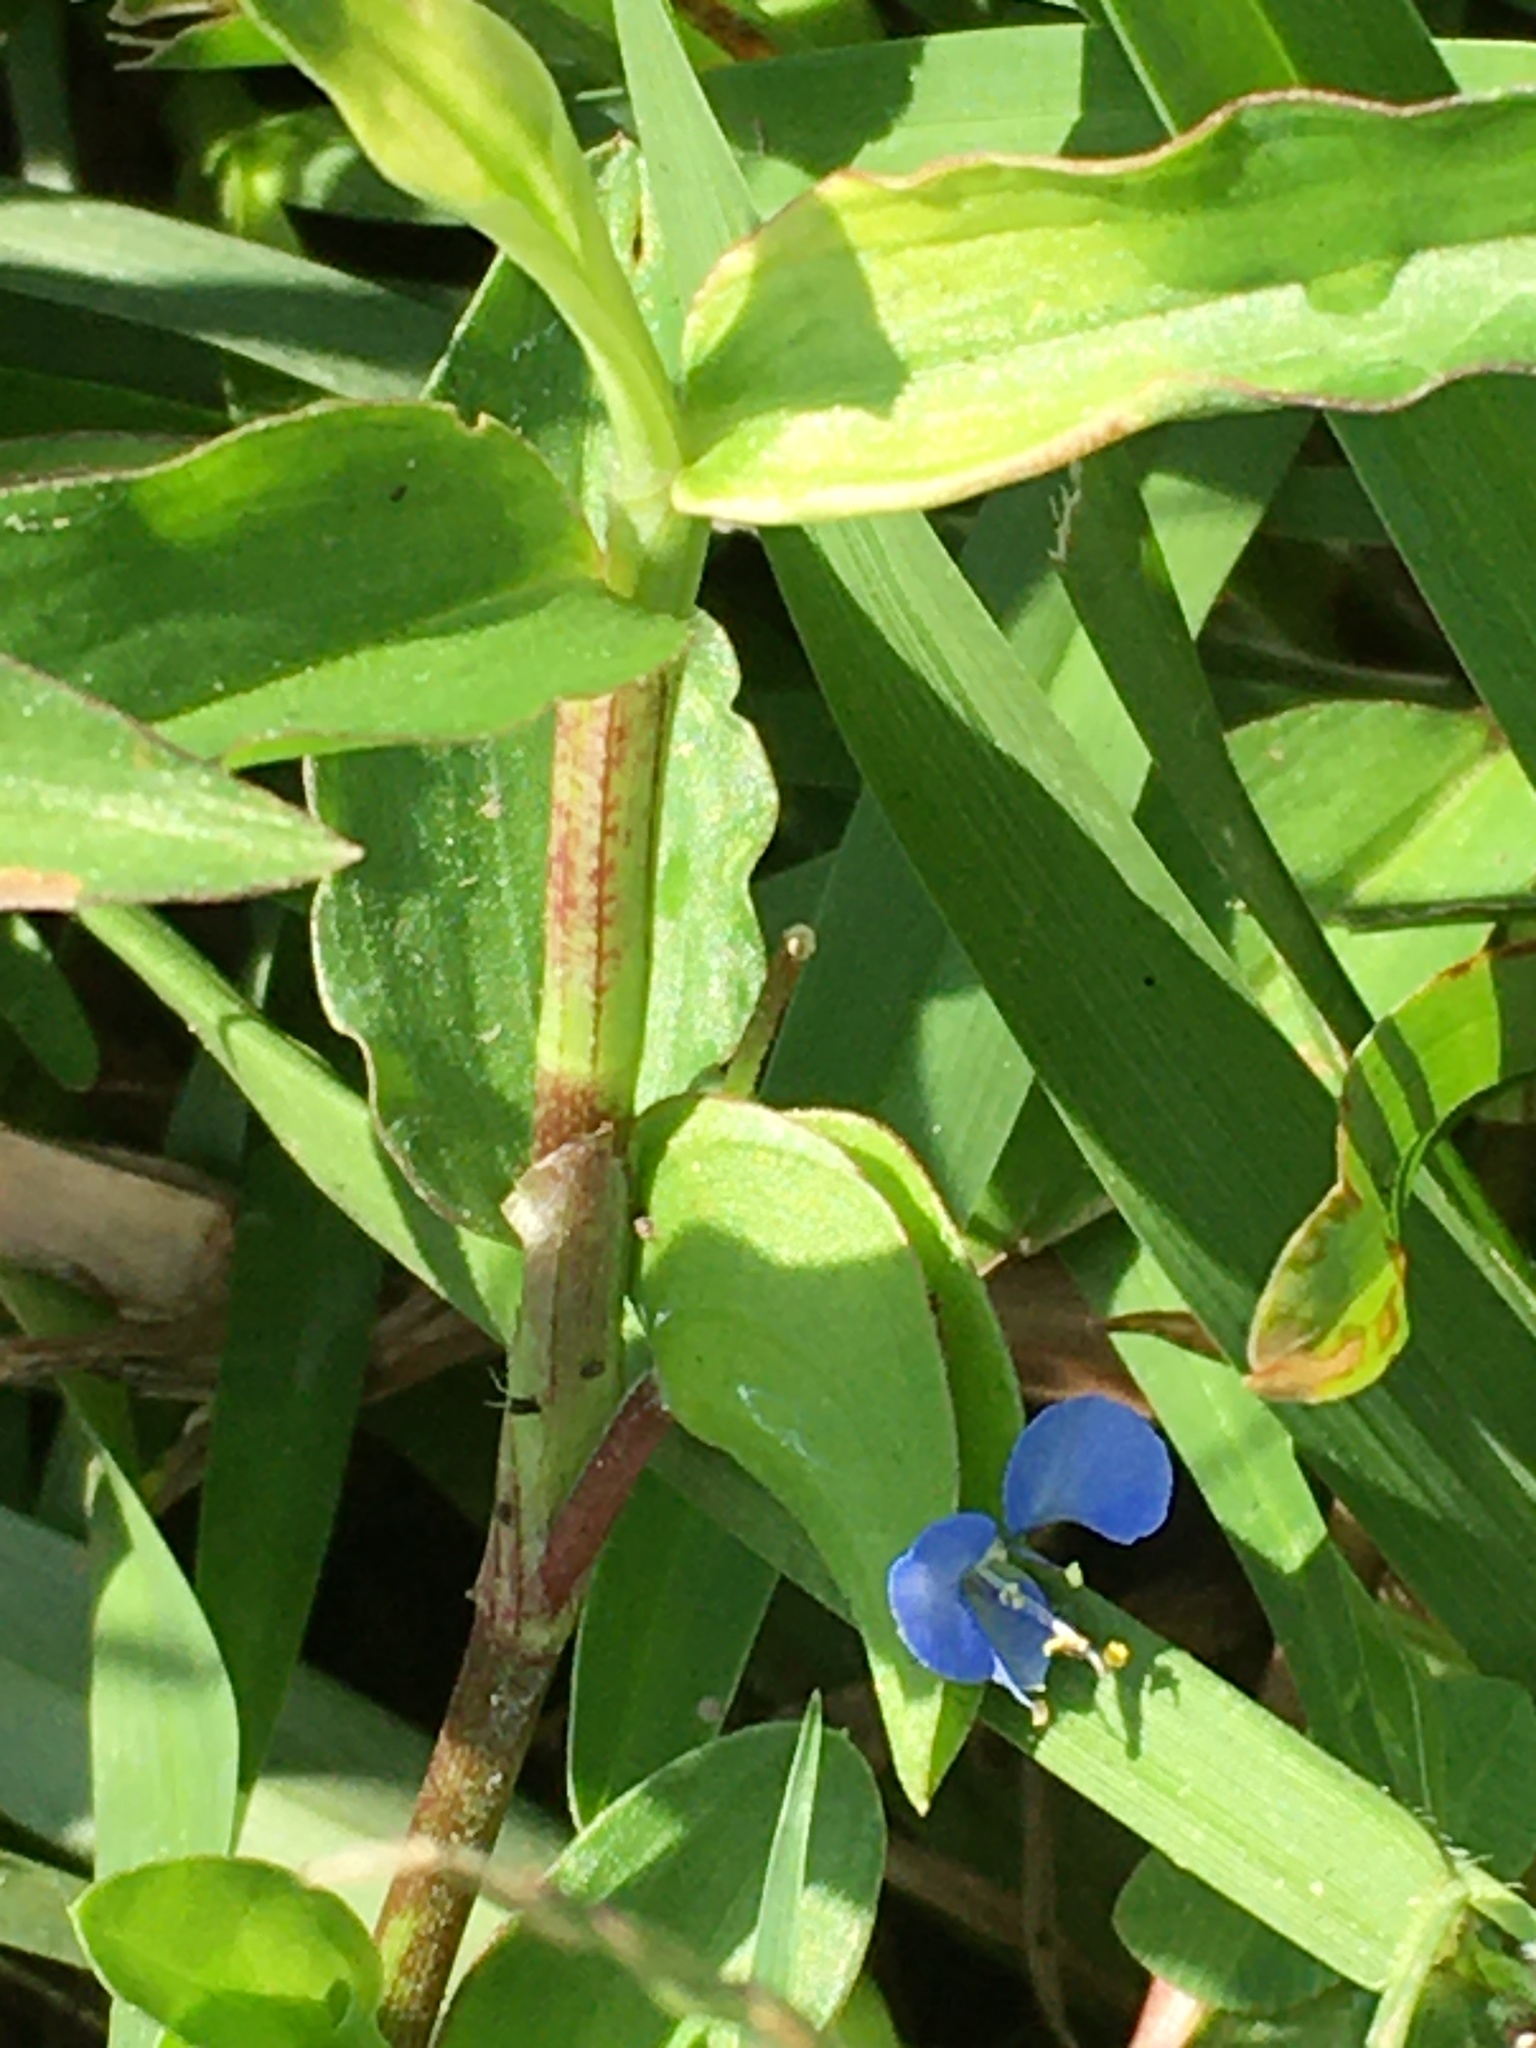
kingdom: Plantae
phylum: Tracheophyta
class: Liliopsida
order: Commelinales
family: Commelinaceae
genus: Commelina
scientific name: Commelina diffusa
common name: Climbing dayflower
